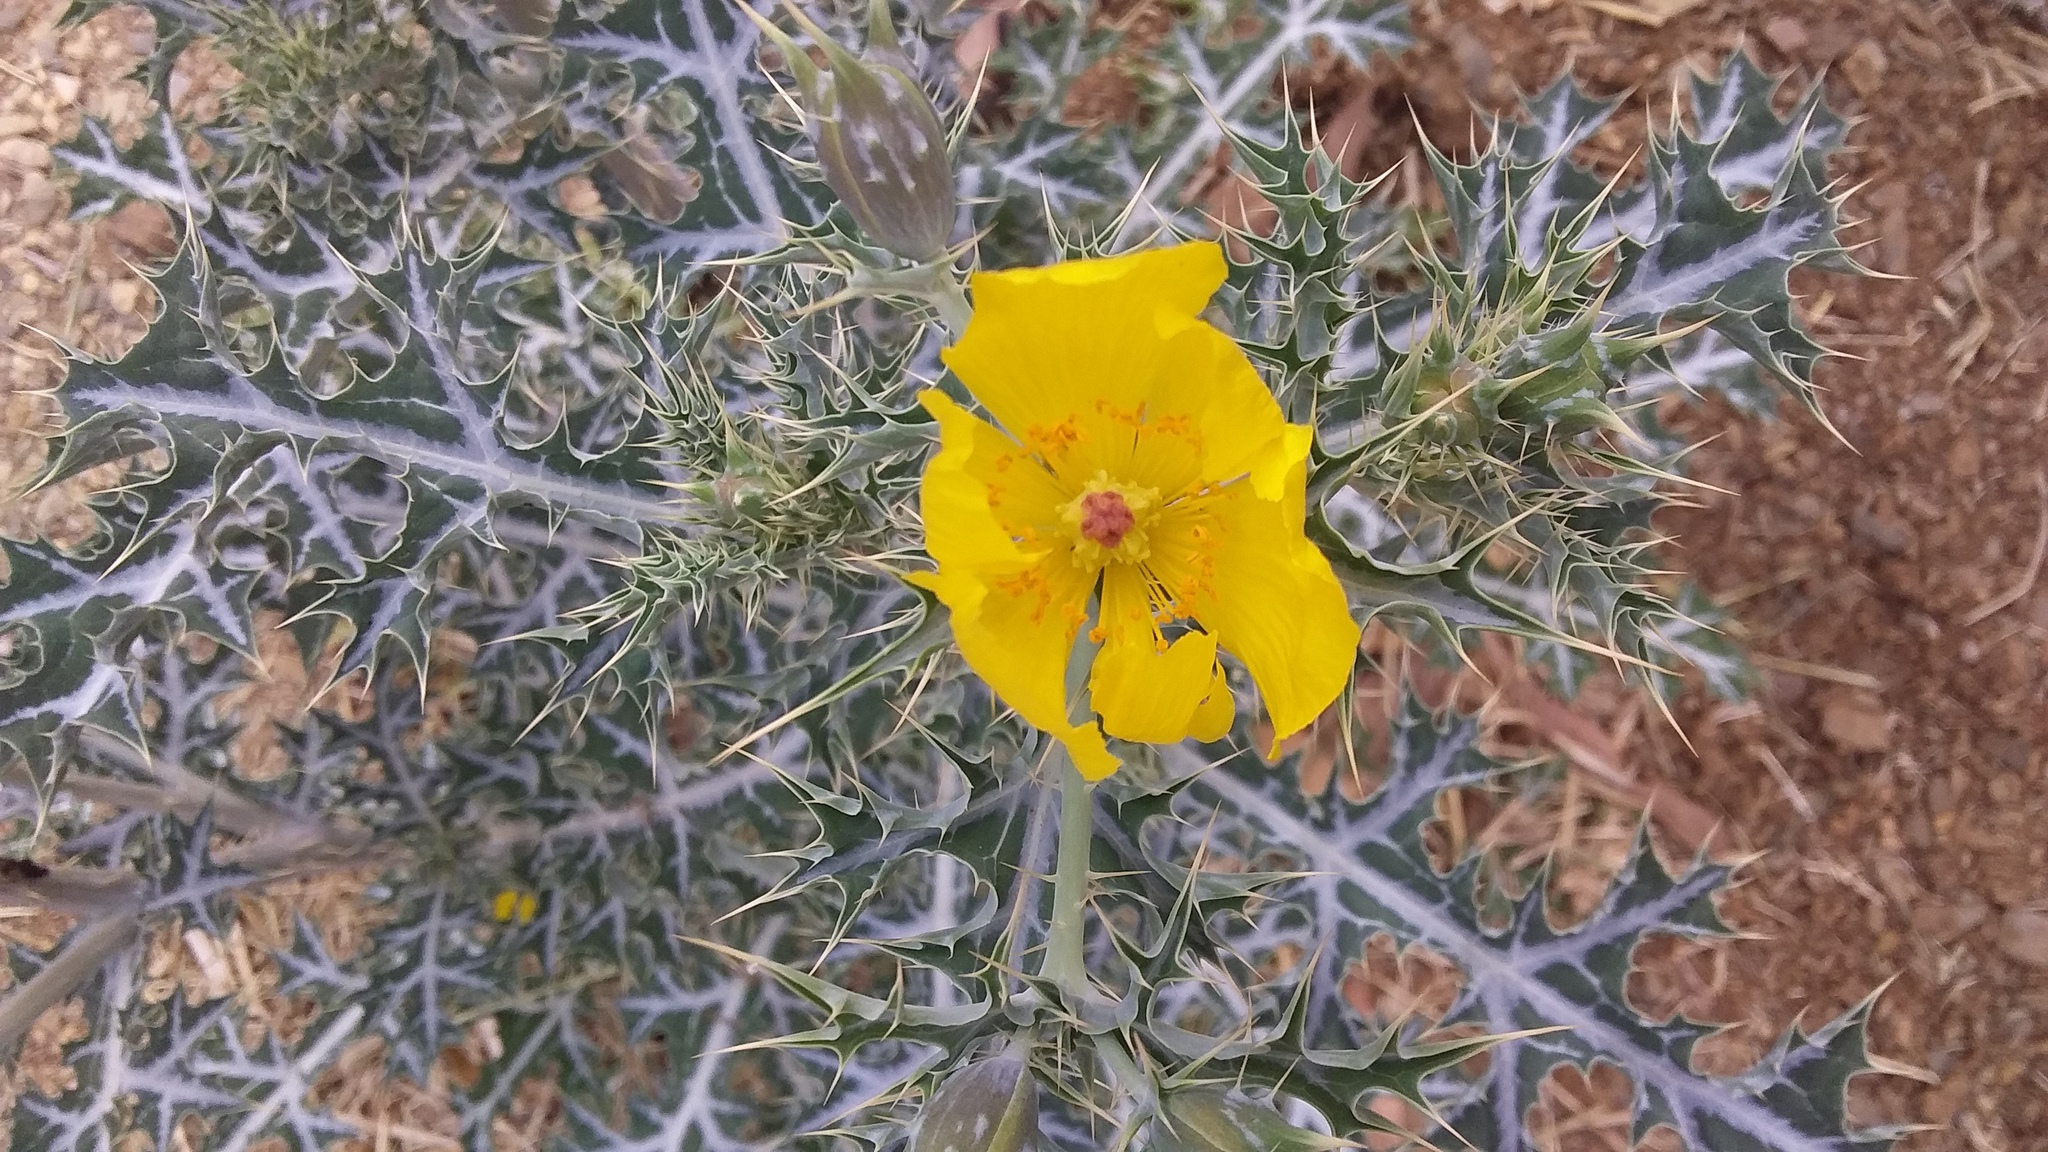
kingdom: Plantae
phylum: Tracheophyta
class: Magnoliopsida
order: Ranunculales
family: Papaveraceae
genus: Argemone
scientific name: Argemone mexicana
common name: Mexican poppy
